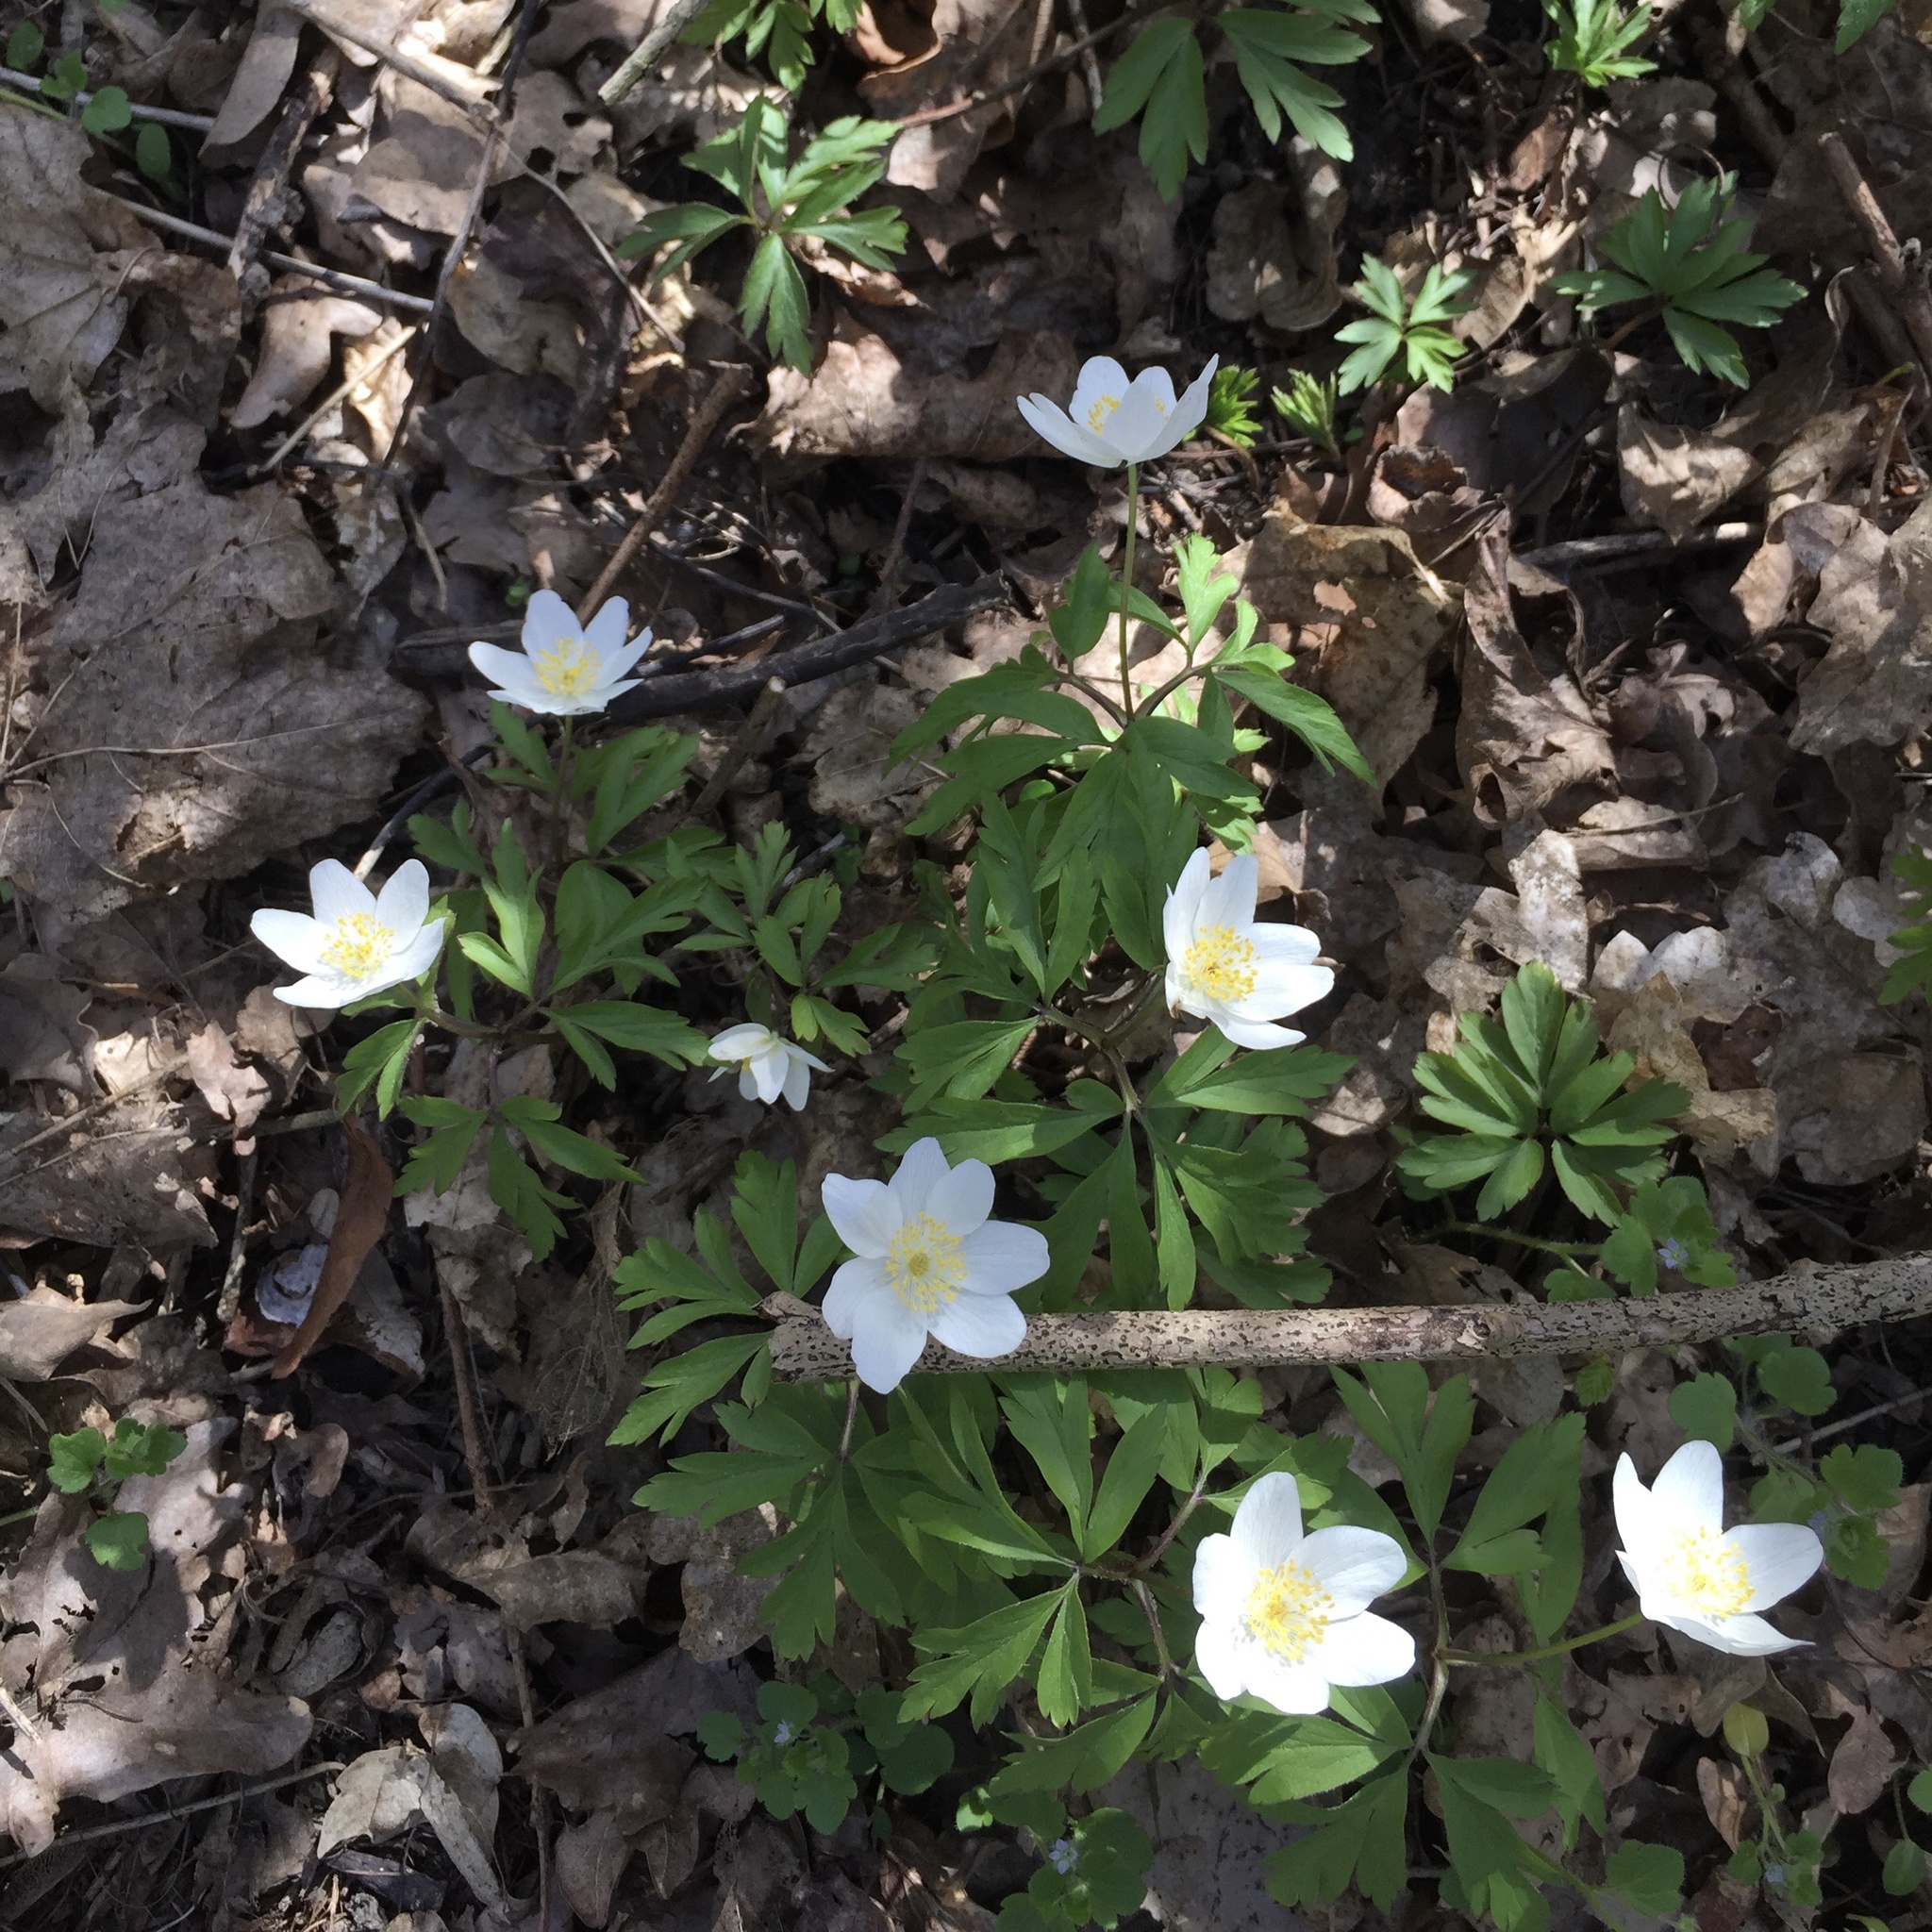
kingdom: Plantae
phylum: Tracheophyta
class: Magnoliopsida
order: Ranunculales
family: Ranunculaceae
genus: Anemone
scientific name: Anemone nemorosa
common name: Wood anemone
